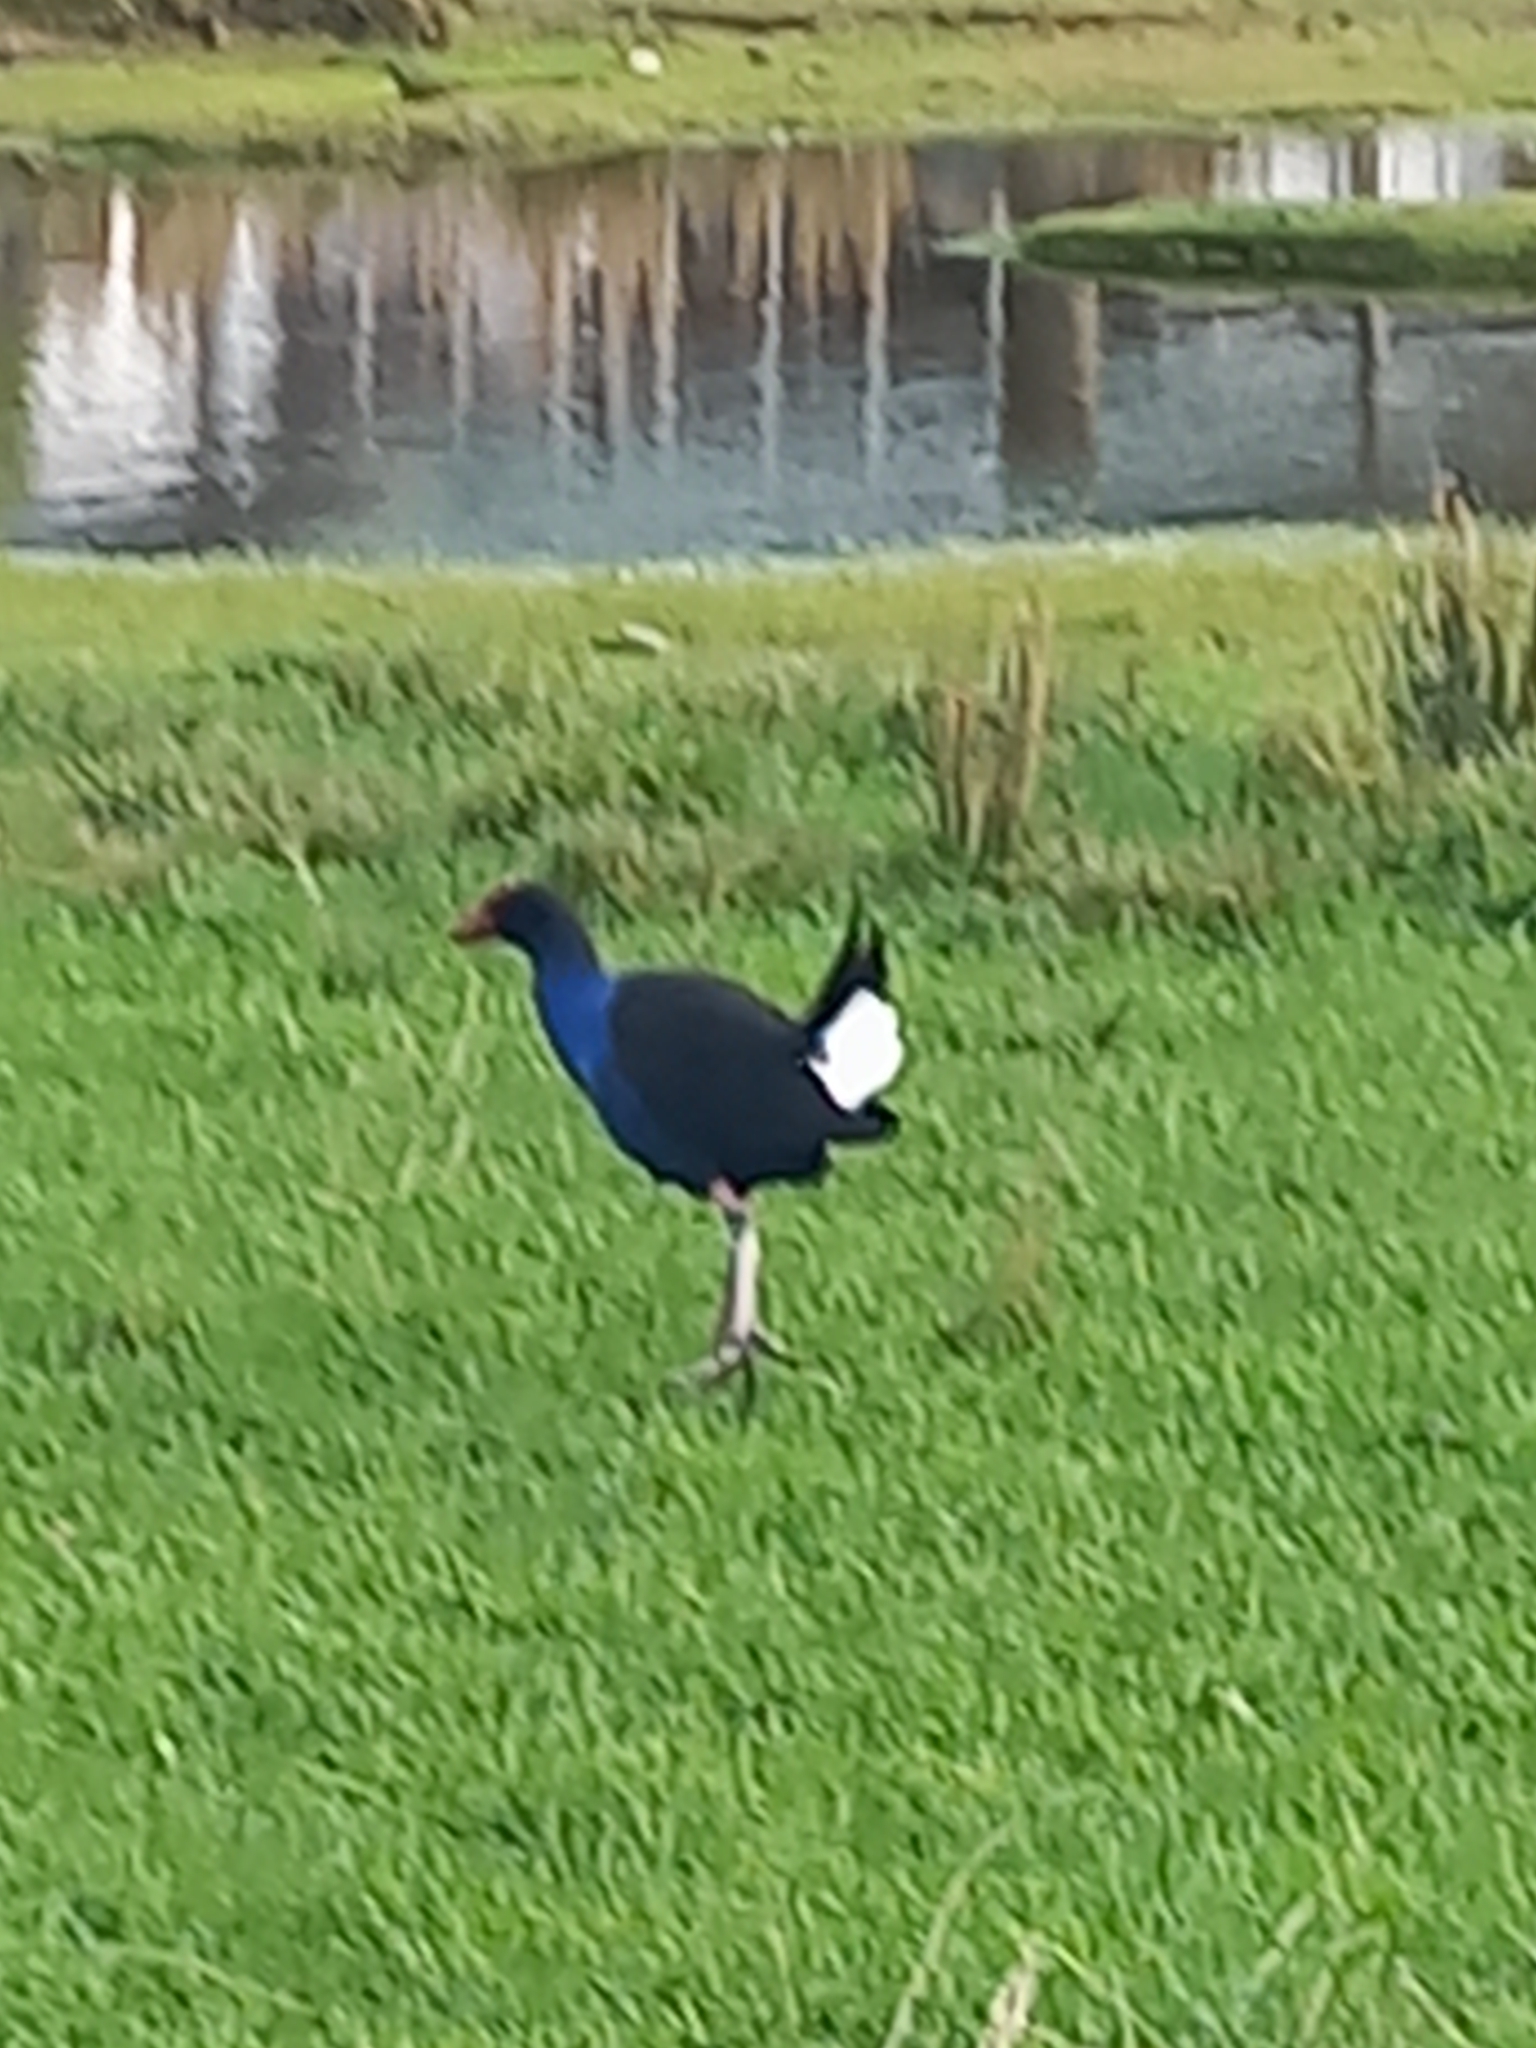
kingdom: Animalia
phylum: Chordata
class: Aves
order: Gruiformes
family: Rallidae
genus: Porphyrio
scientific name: Porphyrio melanotus
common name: Australasian swamphen
